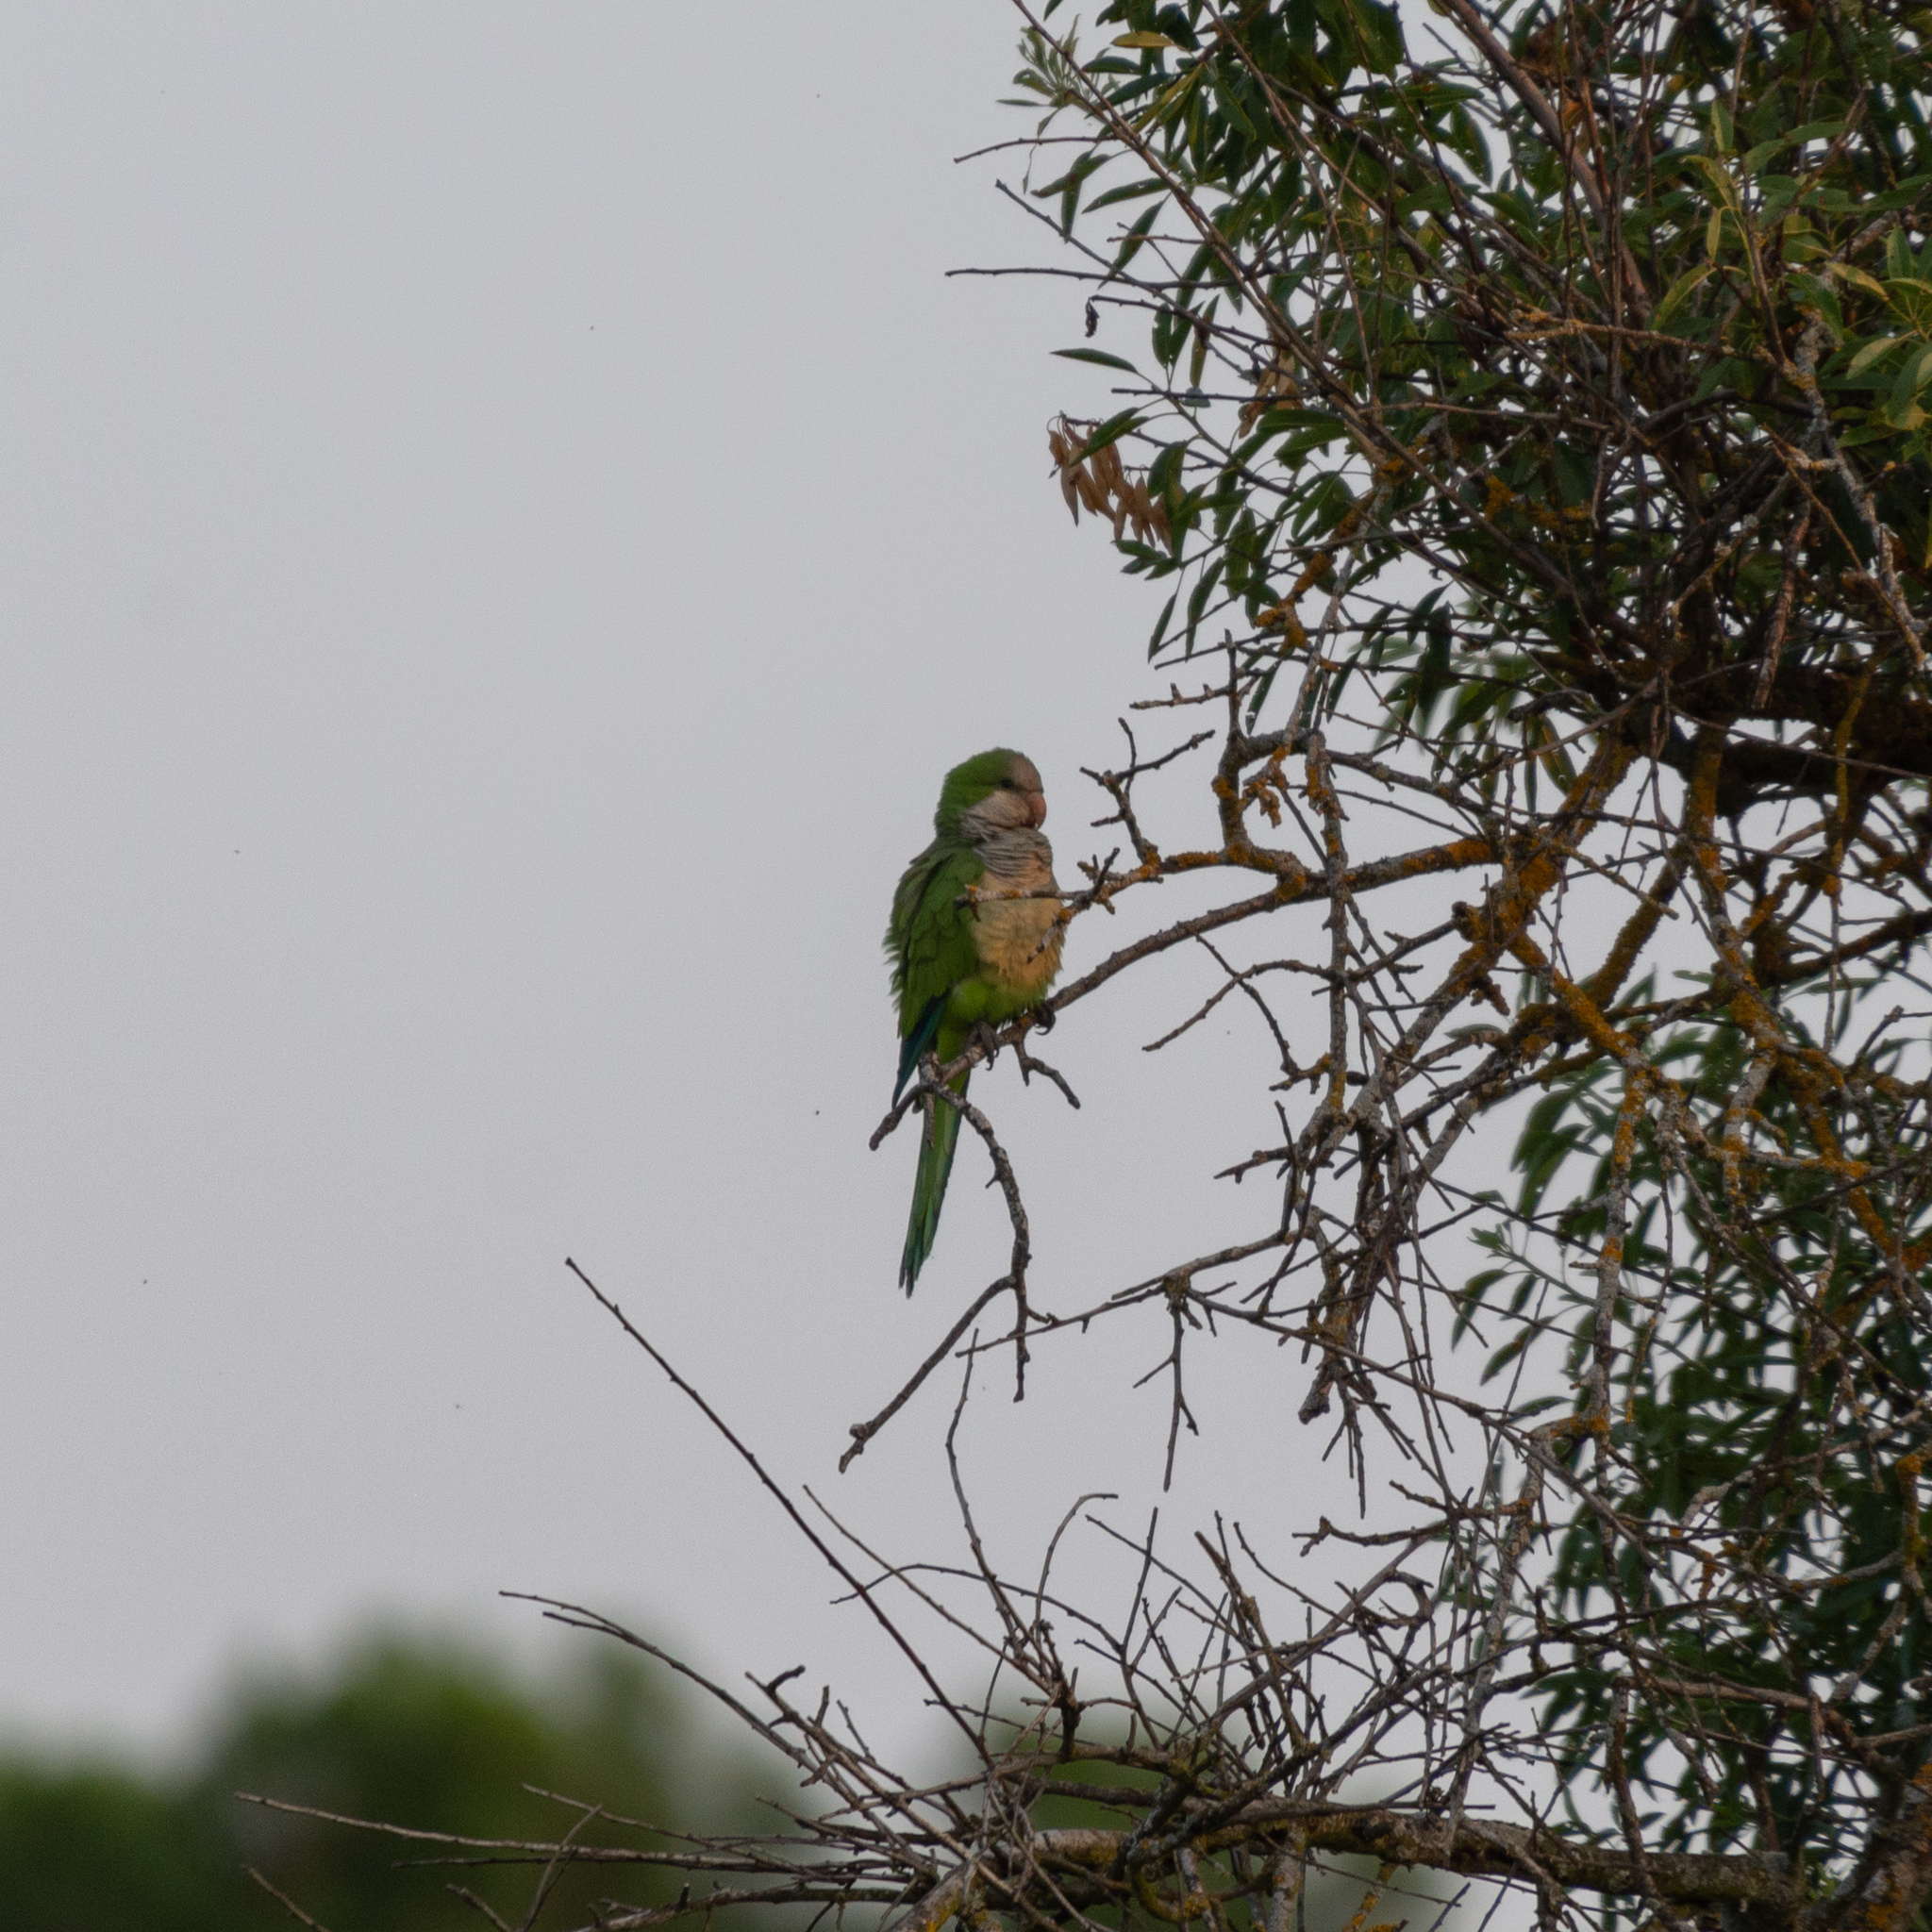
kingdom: Animalia
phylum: Chordata
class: Aves
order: Psittaciformes
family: Psittacidae
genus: Myiopsitta
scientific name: Myiopsitta monachus
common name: Monk parakeet
